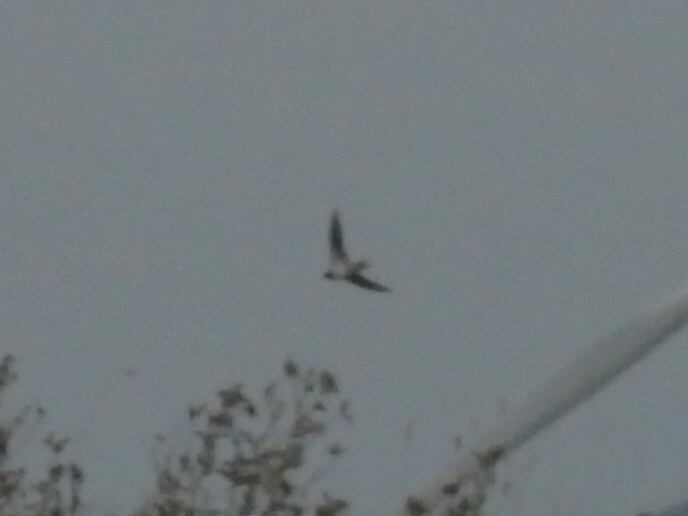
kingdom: Animalia
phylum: Chordata
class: Aves
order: Passeriformes
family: Hirundinidae
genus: Delichon
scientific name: Delichon urbicum
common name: Common house martin
